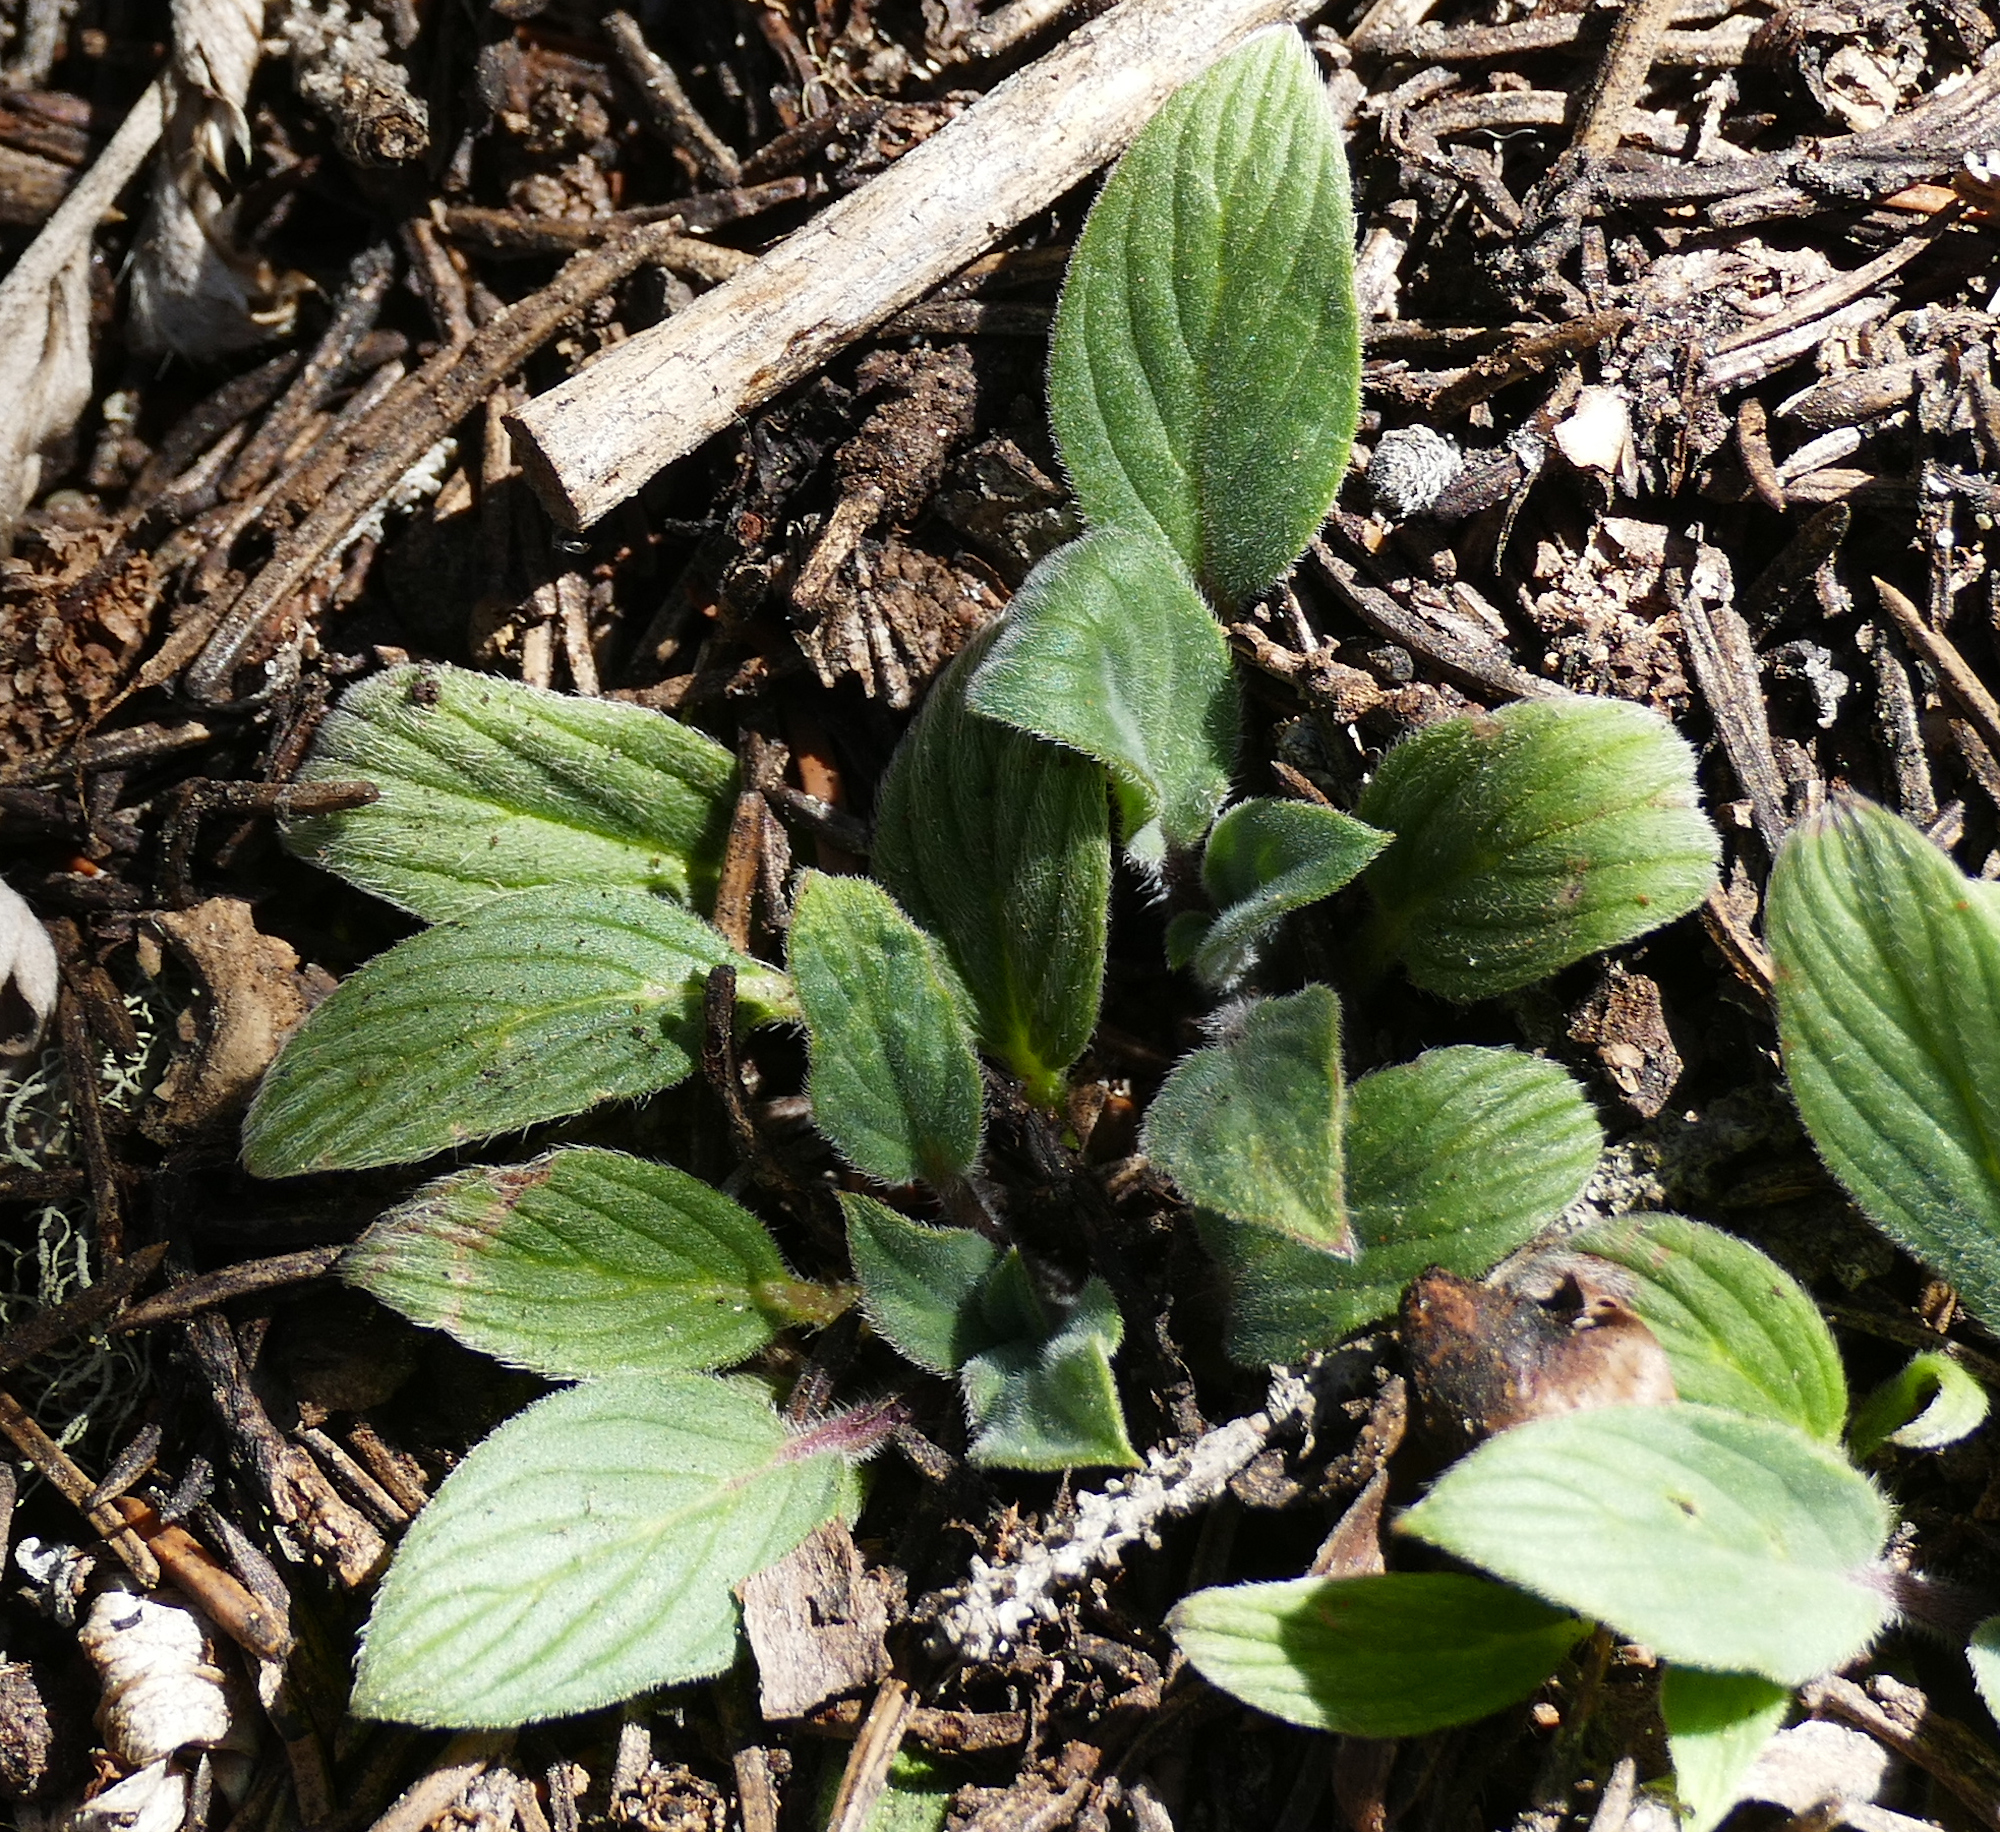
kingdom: Plantae
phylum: Tracheophyta
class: Magnoliopsida
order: Boraginales
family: Hydrophyllaceae
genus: Phacelia
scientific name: Phacelia heterophylla
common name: Variable-leaved phacelia
